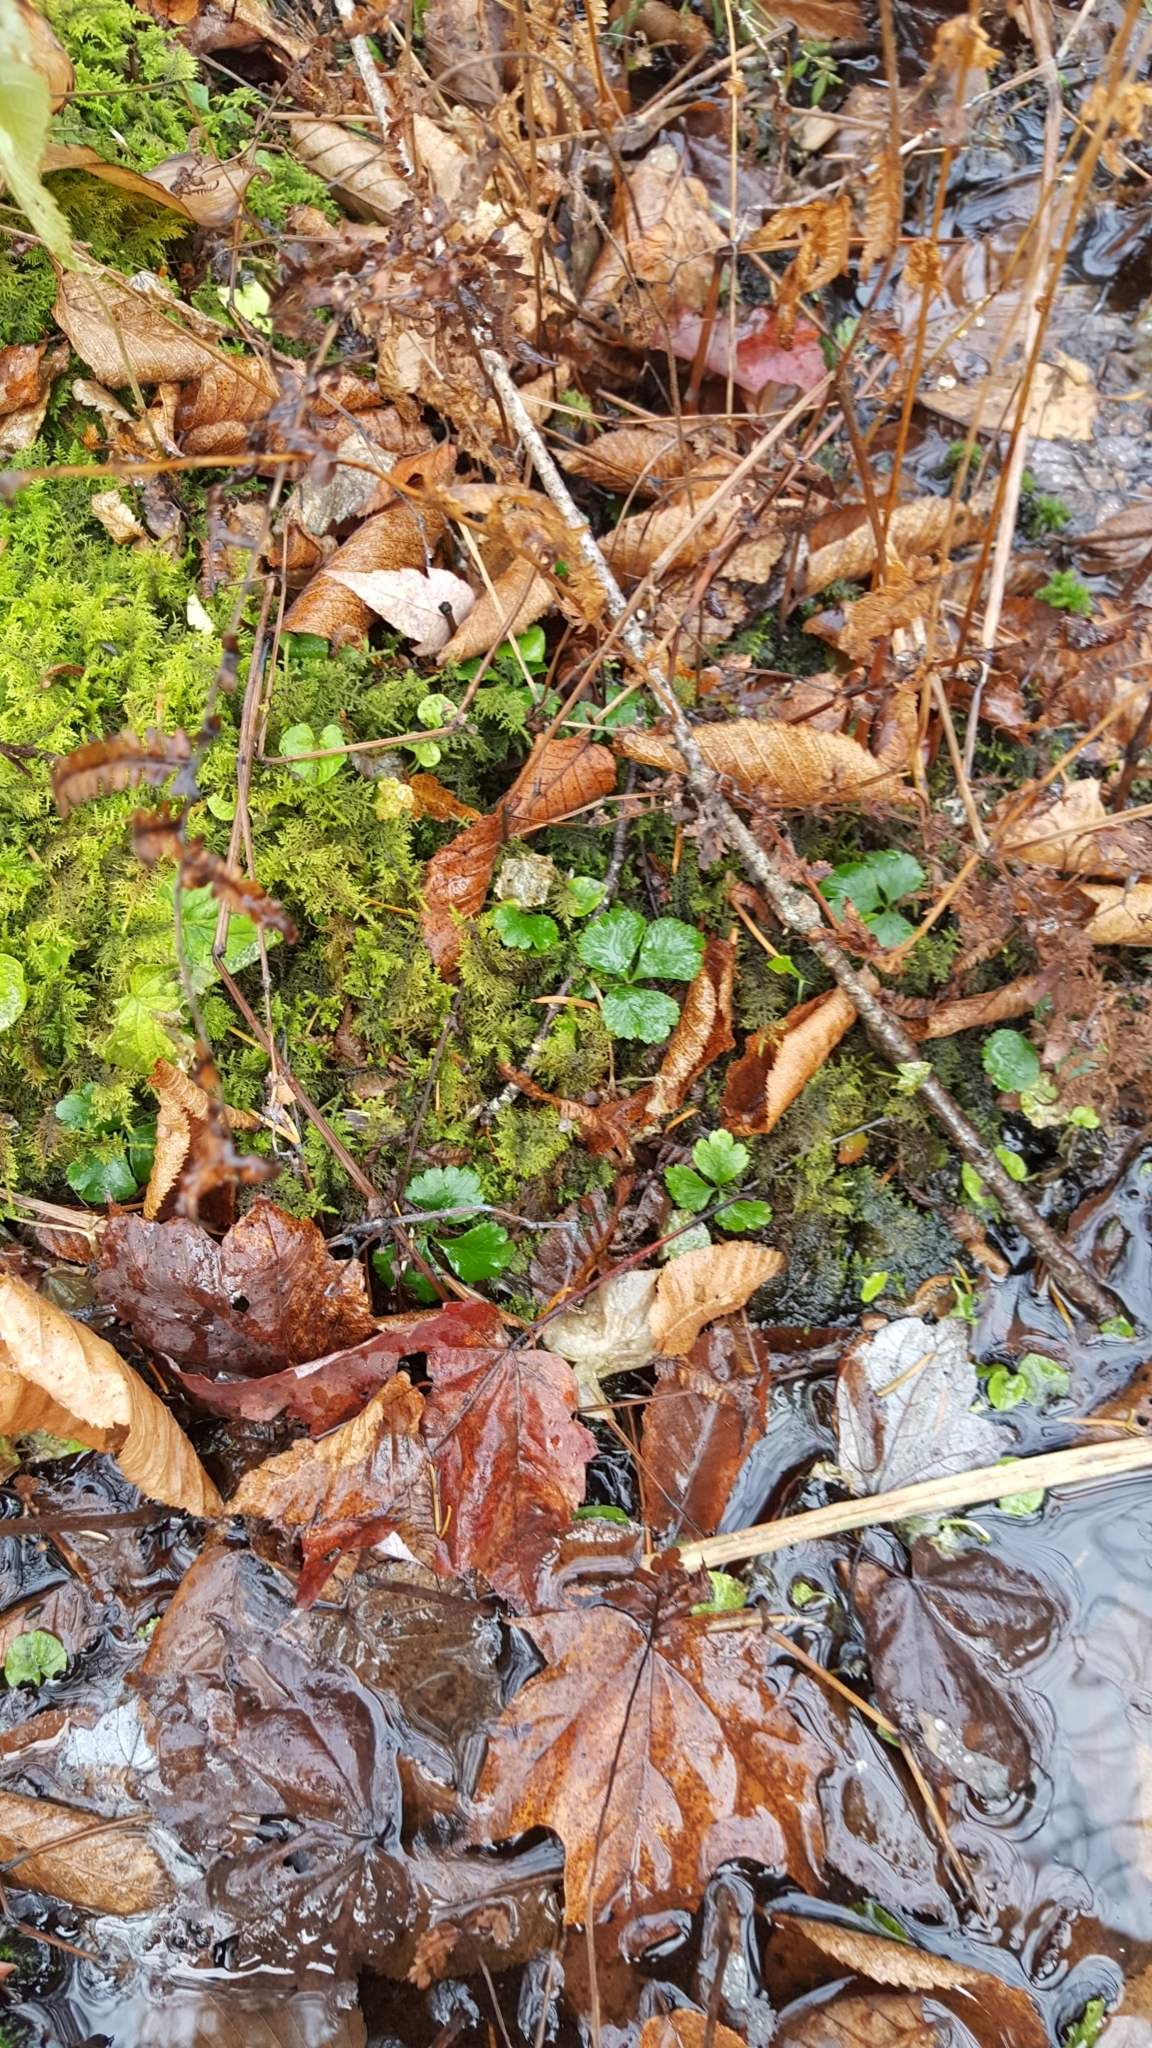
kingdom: Plantae
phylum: Tracheophyta
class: Magnoliopsida
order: Ranunculales
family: Ranunculaceae
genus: Coptis
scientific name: Coptis trifolia
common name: Canker-root
